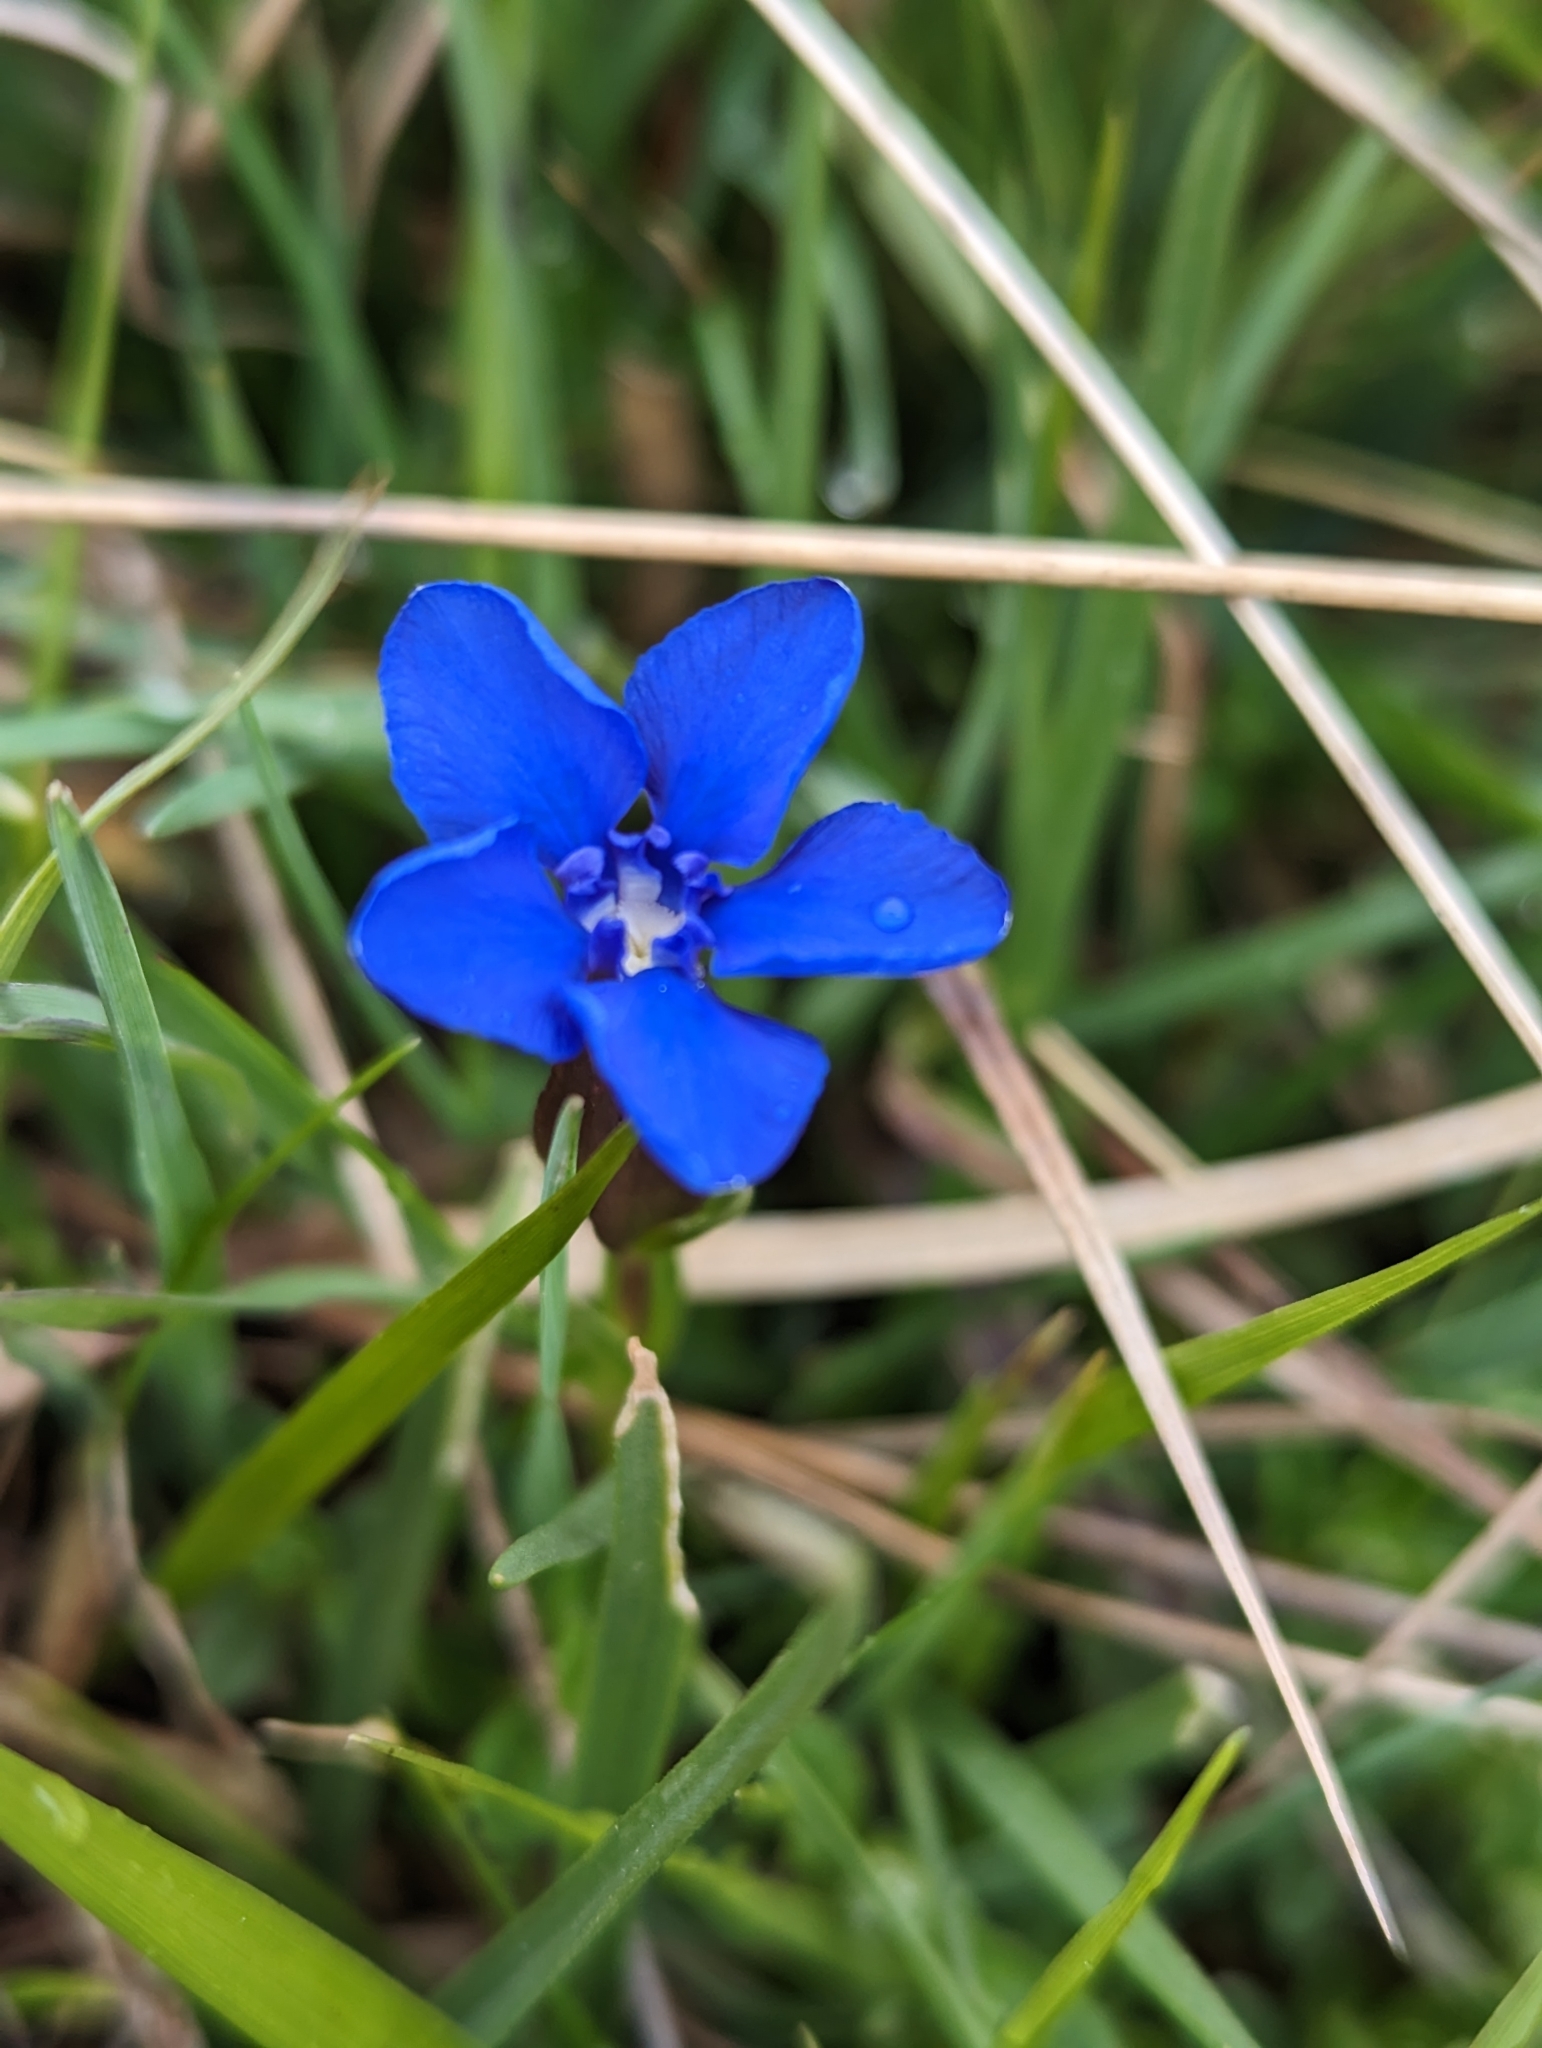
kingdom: Plantae
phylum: Tracheophyta
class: Magnoliopsida
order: Gentianales
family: Gentianaceae
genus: Gentiana
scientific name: Gentiana verna
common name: Spring gentian
